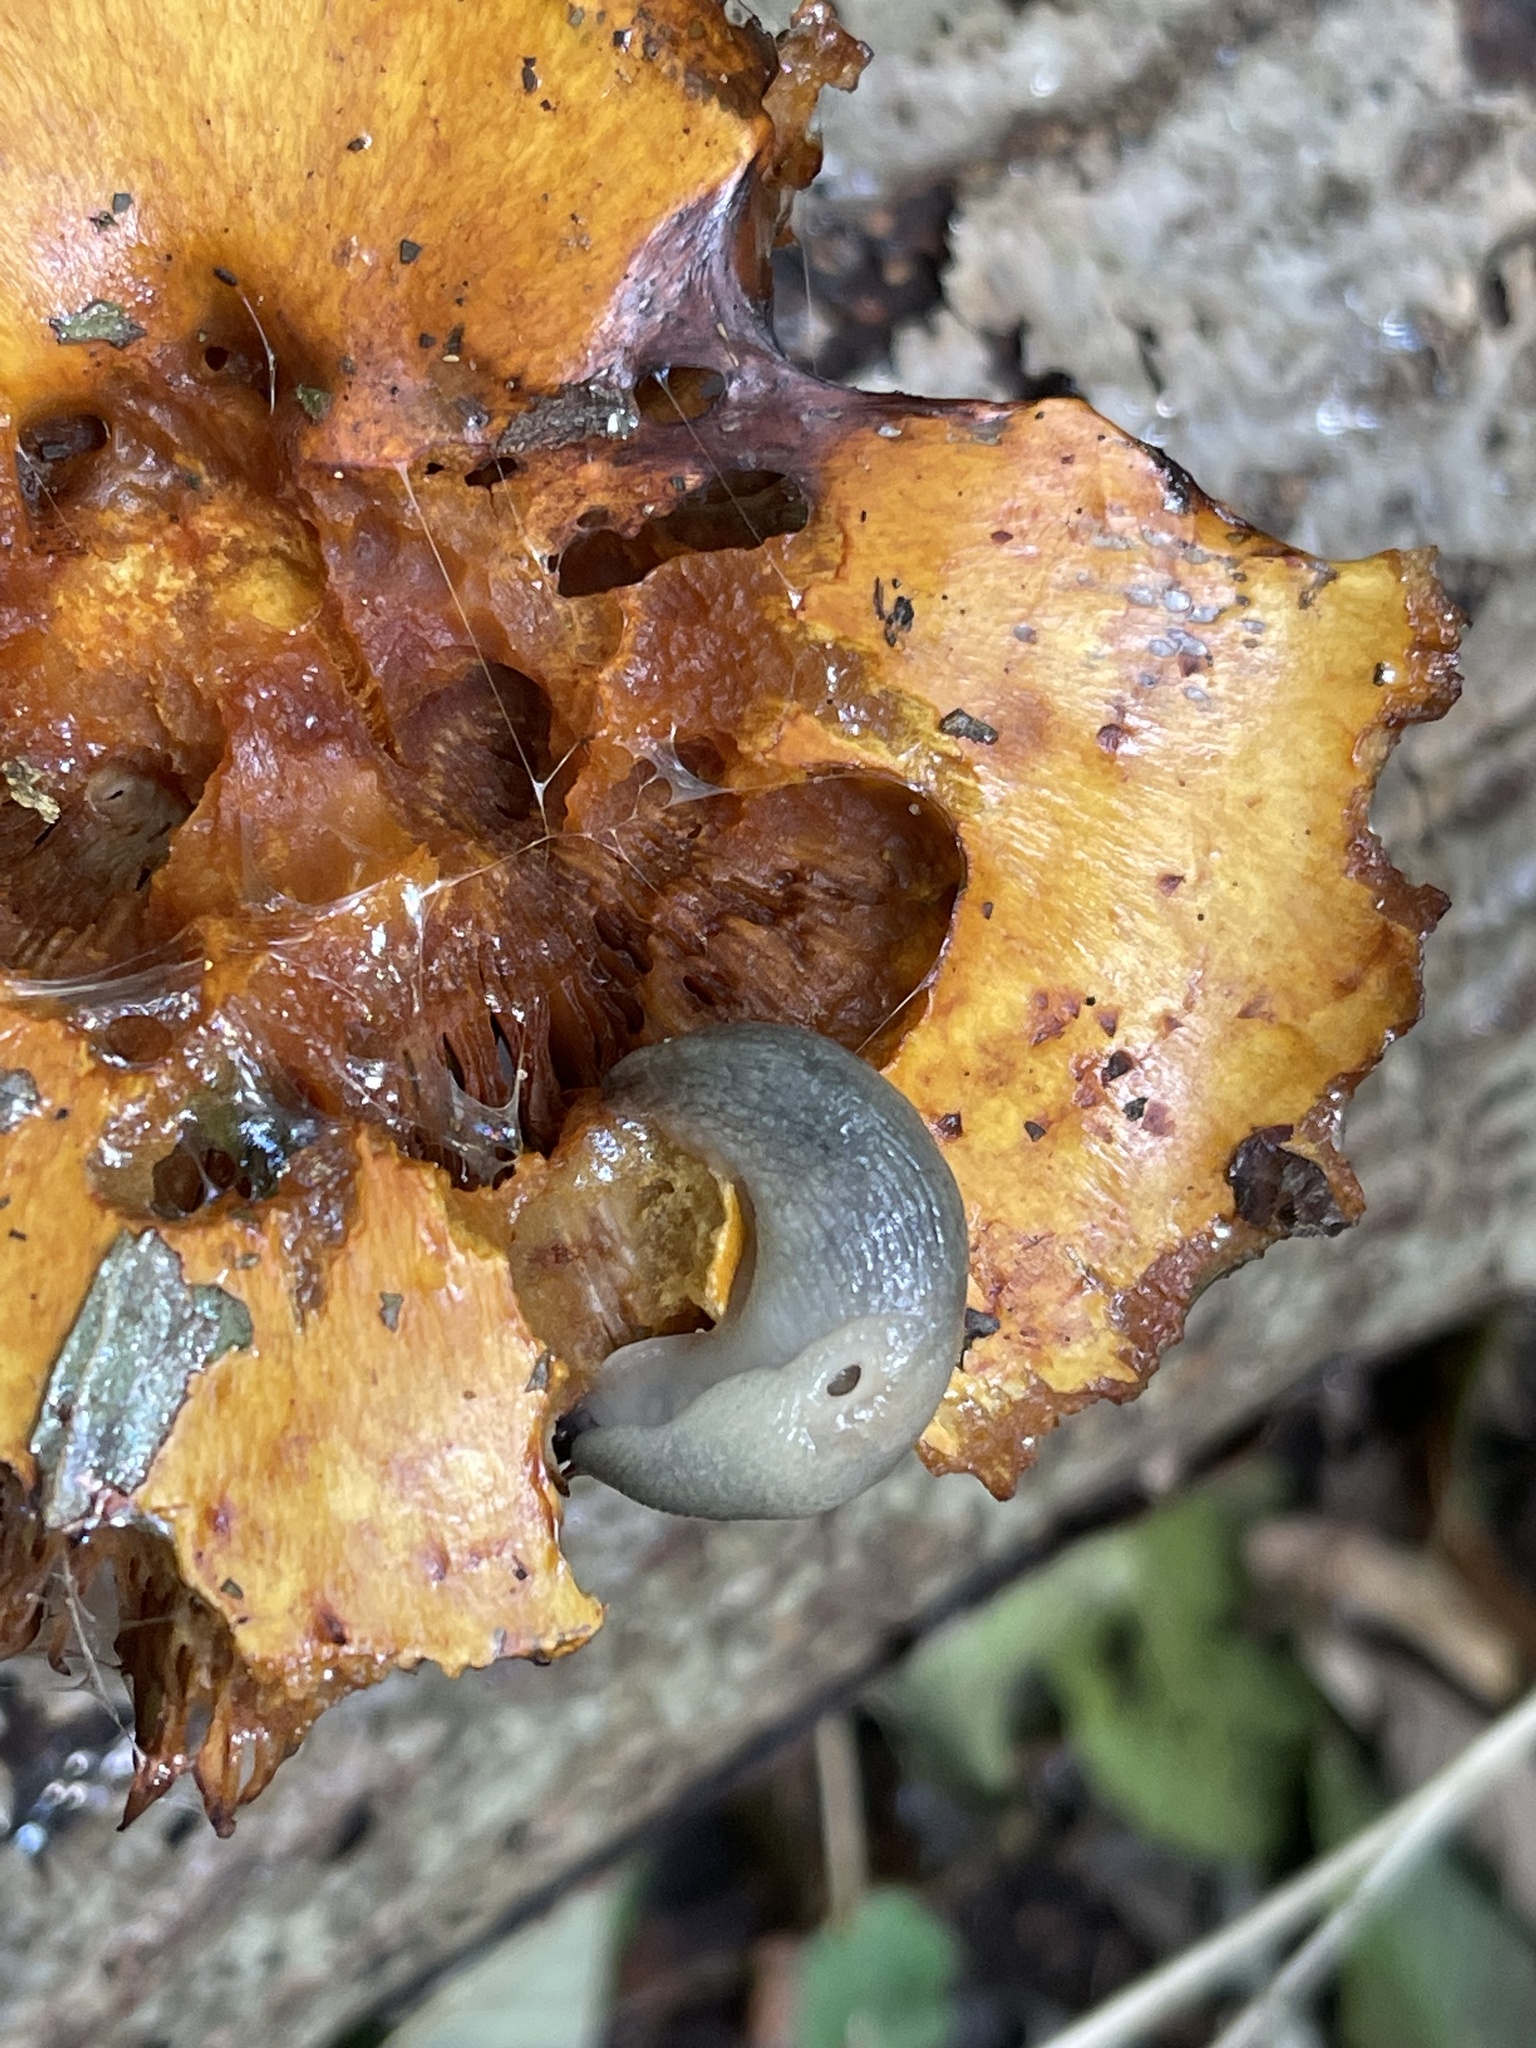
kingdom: Animalia
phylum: Mollusca
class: Gastropoda
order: Stylommatophora
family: Agriolimacidae
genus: Krynickillus
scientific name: Krynickillus melanocephalus
